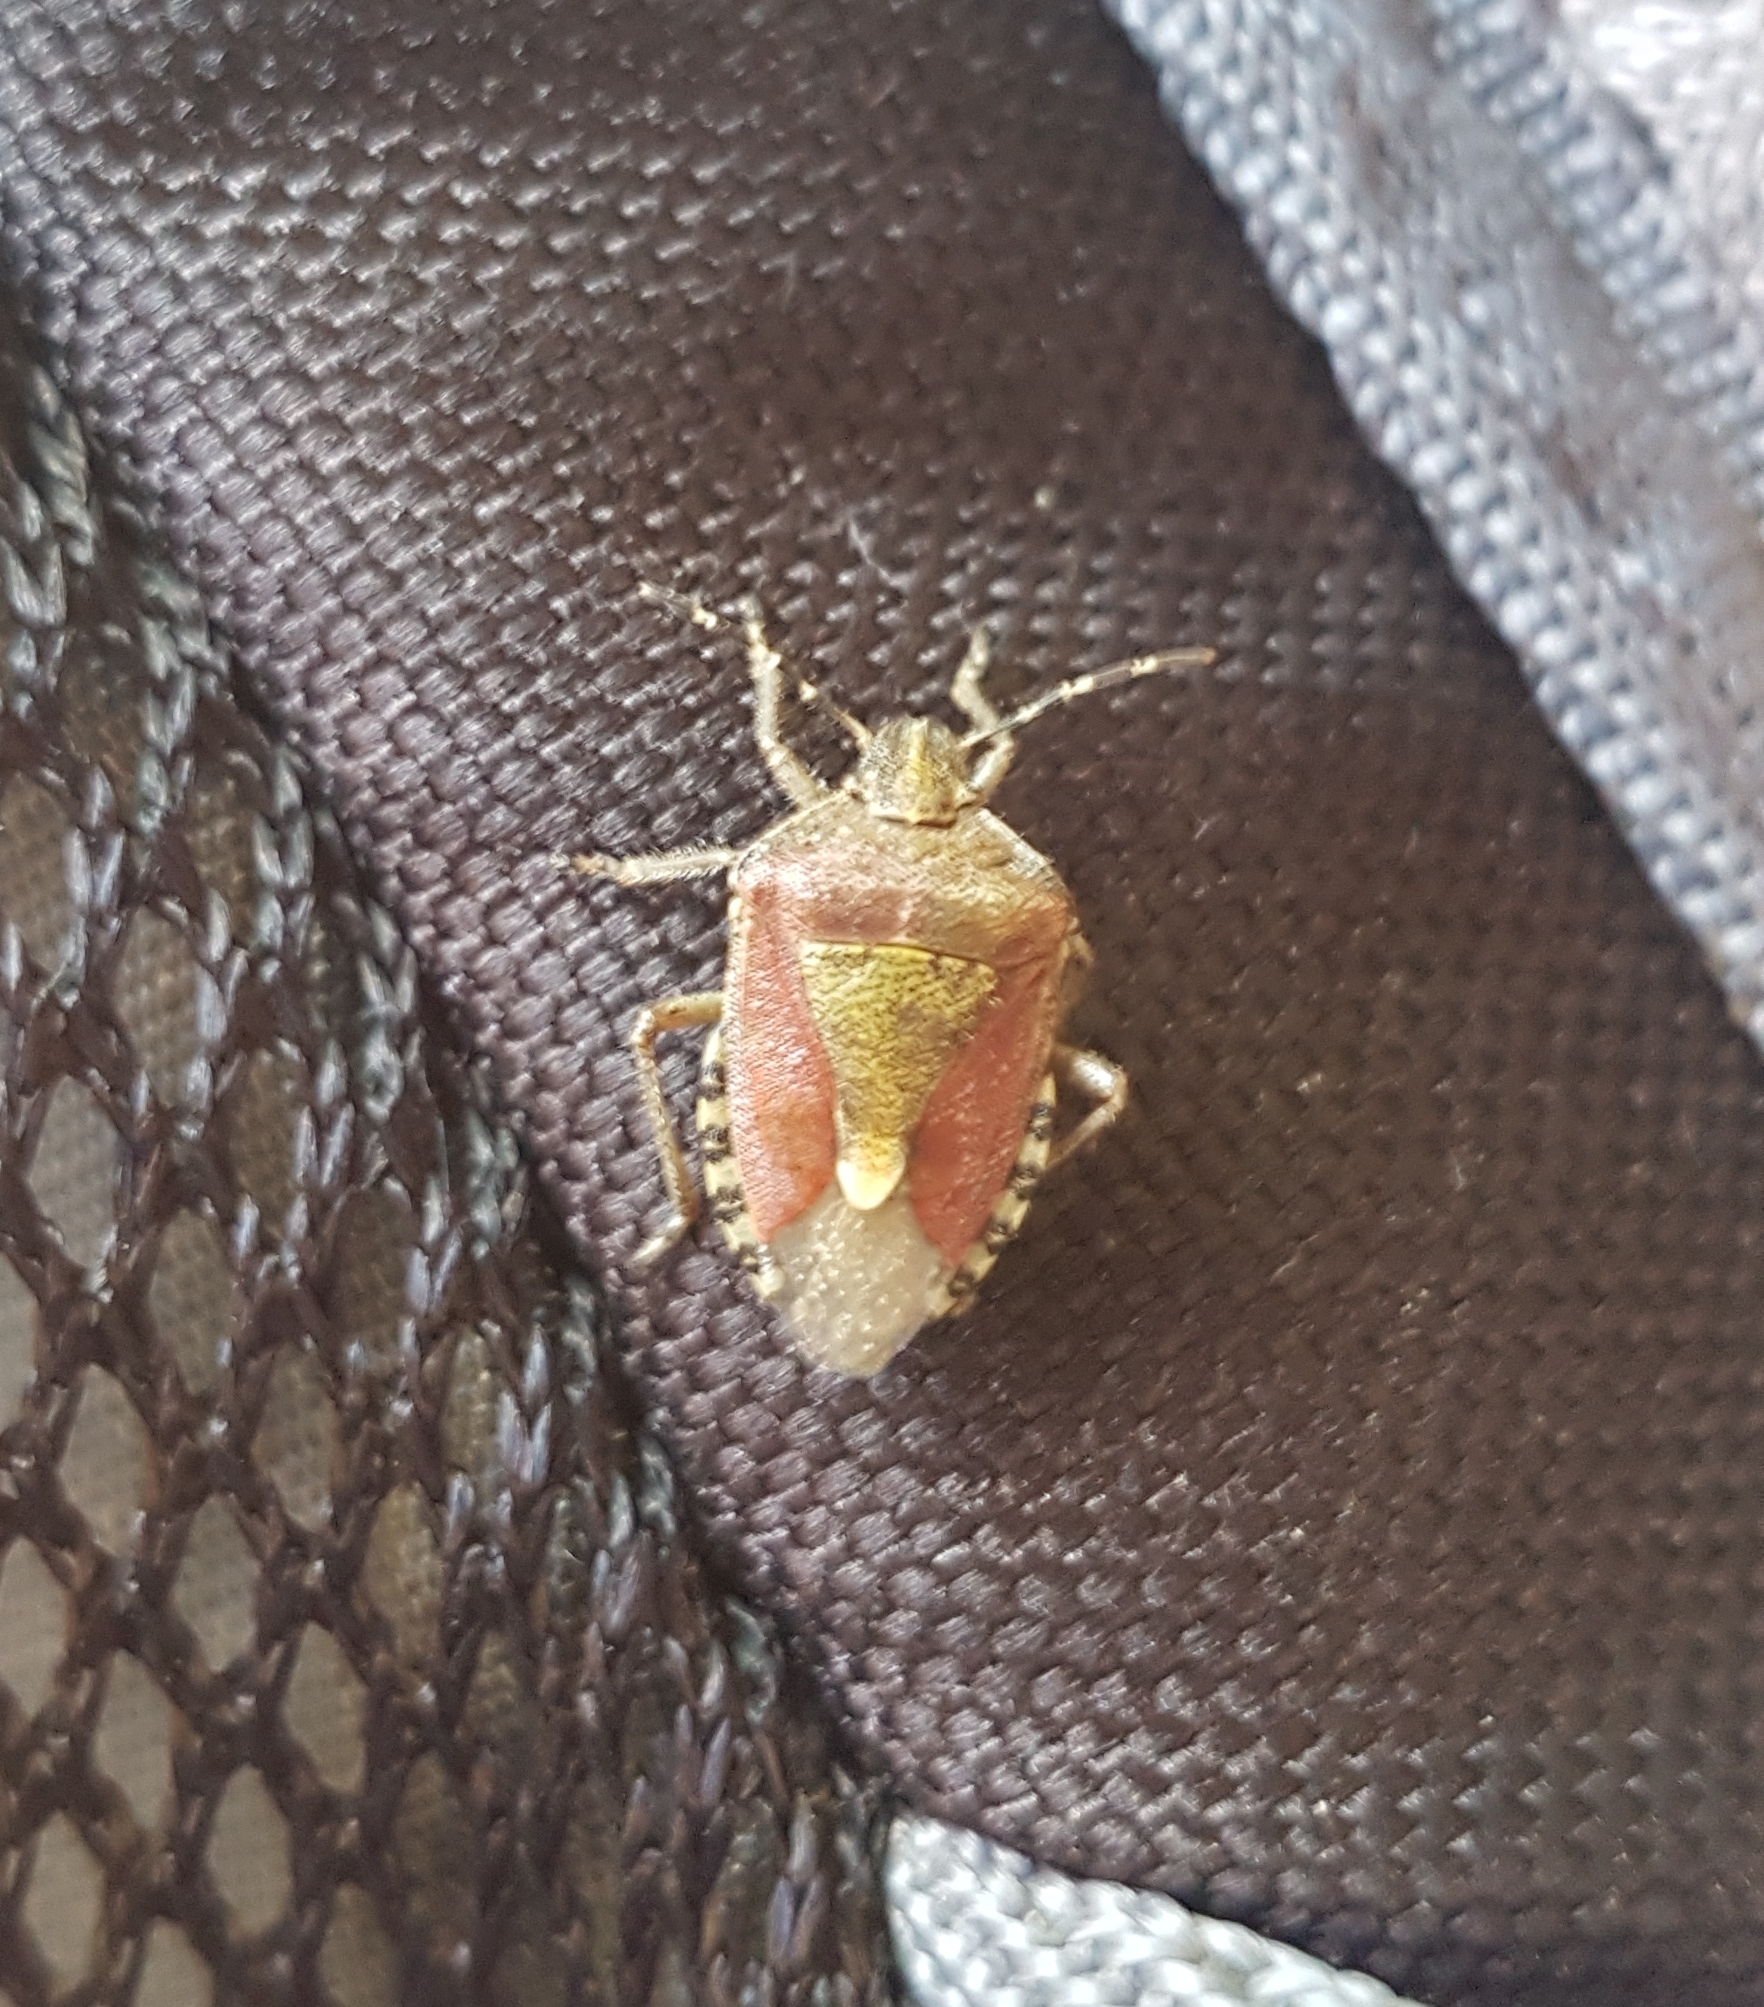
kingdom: Animalia
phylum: Arthropoda
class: Insecta
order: Hemiptera
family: Pentatomidae
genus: Dolycoris
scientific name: Dolycoris baccarum
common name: Sloe bug
